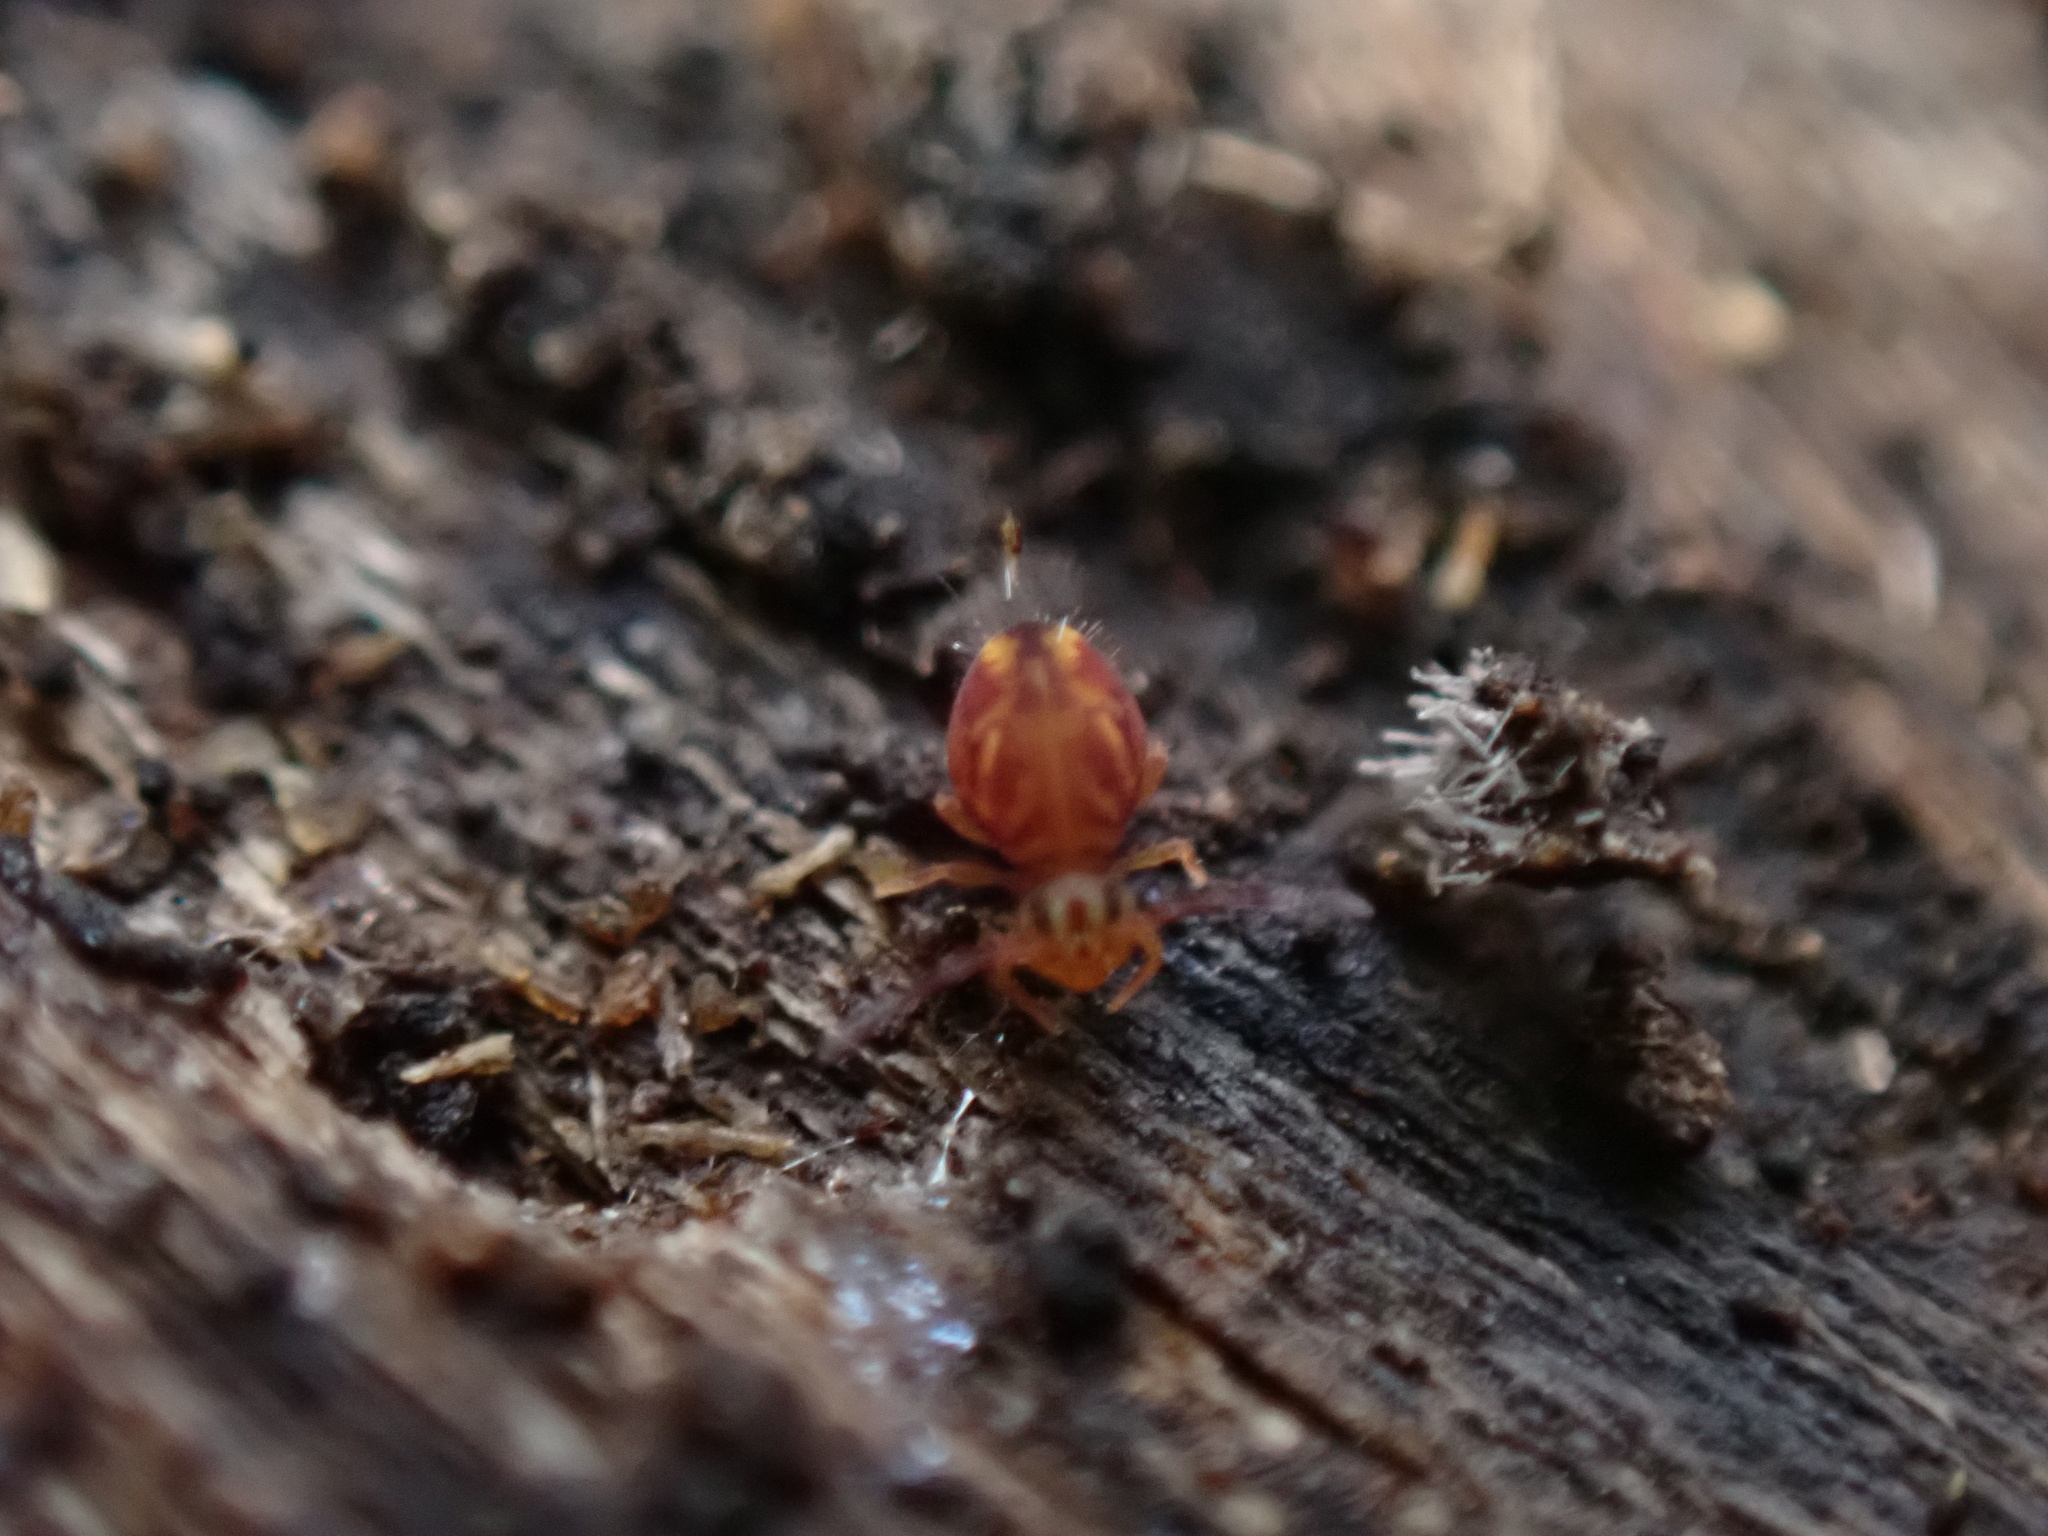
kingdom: Animalia
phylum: Arthropoda
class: Collembola
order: Symphypleona
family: Dicyrtomidae
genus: Dicyrtomina
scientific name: Dicyrtomina minuta
